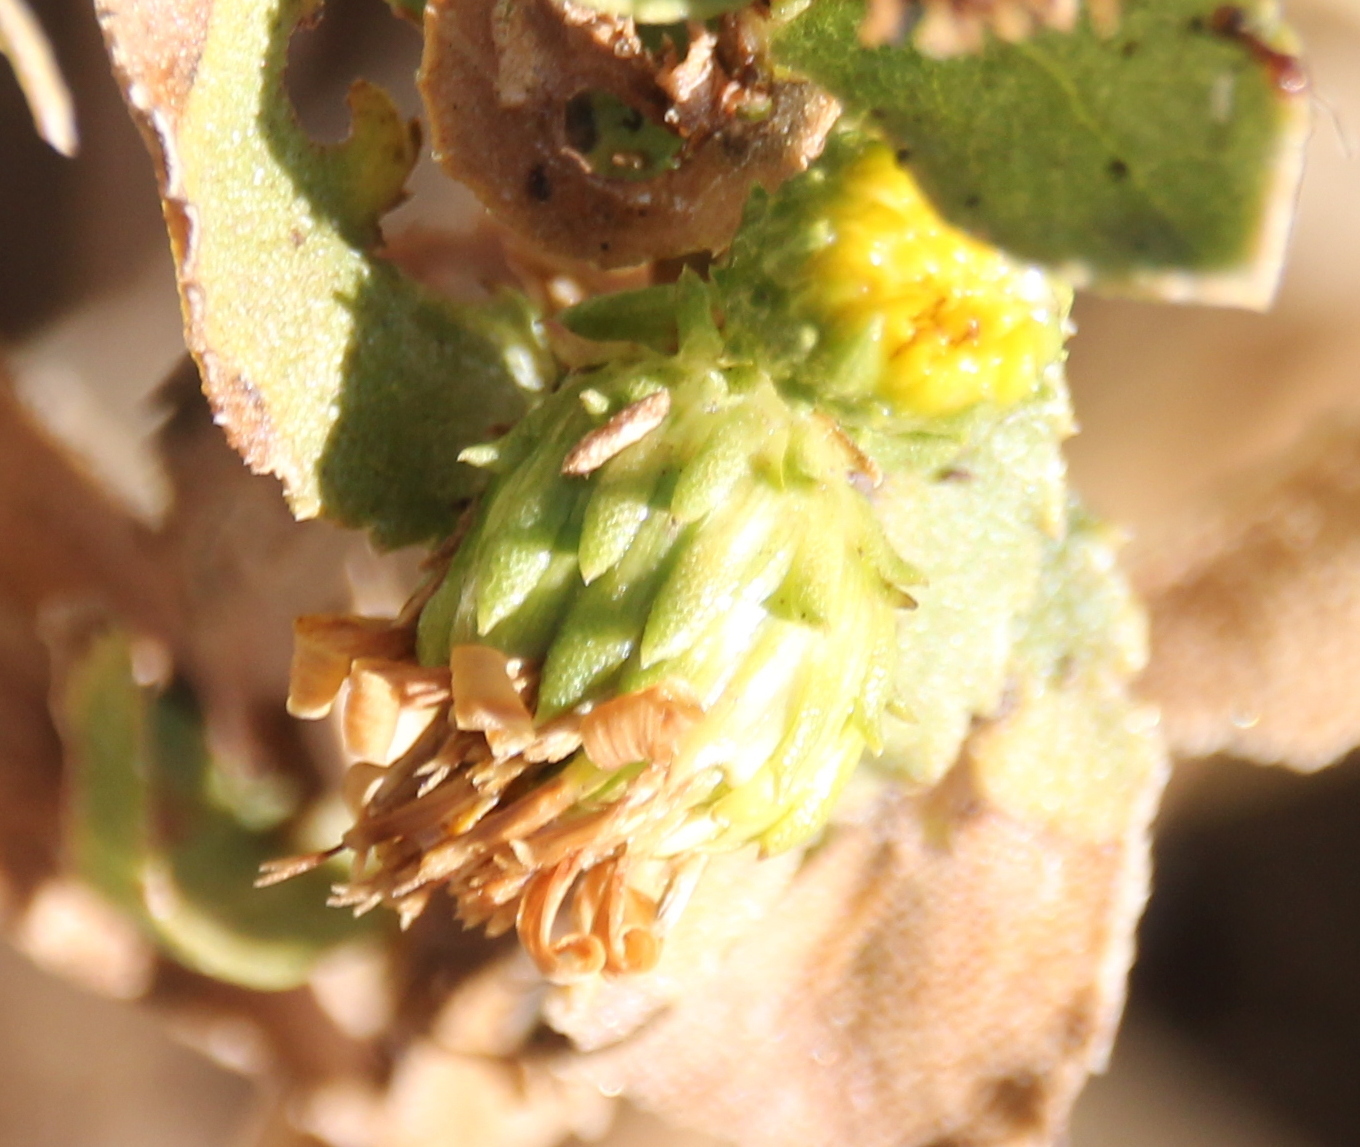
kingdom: Plantae
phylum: Tracheophyta
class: Magnoliopsida
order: Asterales
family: Asteraceae
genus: Grindelia
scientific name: Grindelia hirsutula
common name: Hairy gumweed
